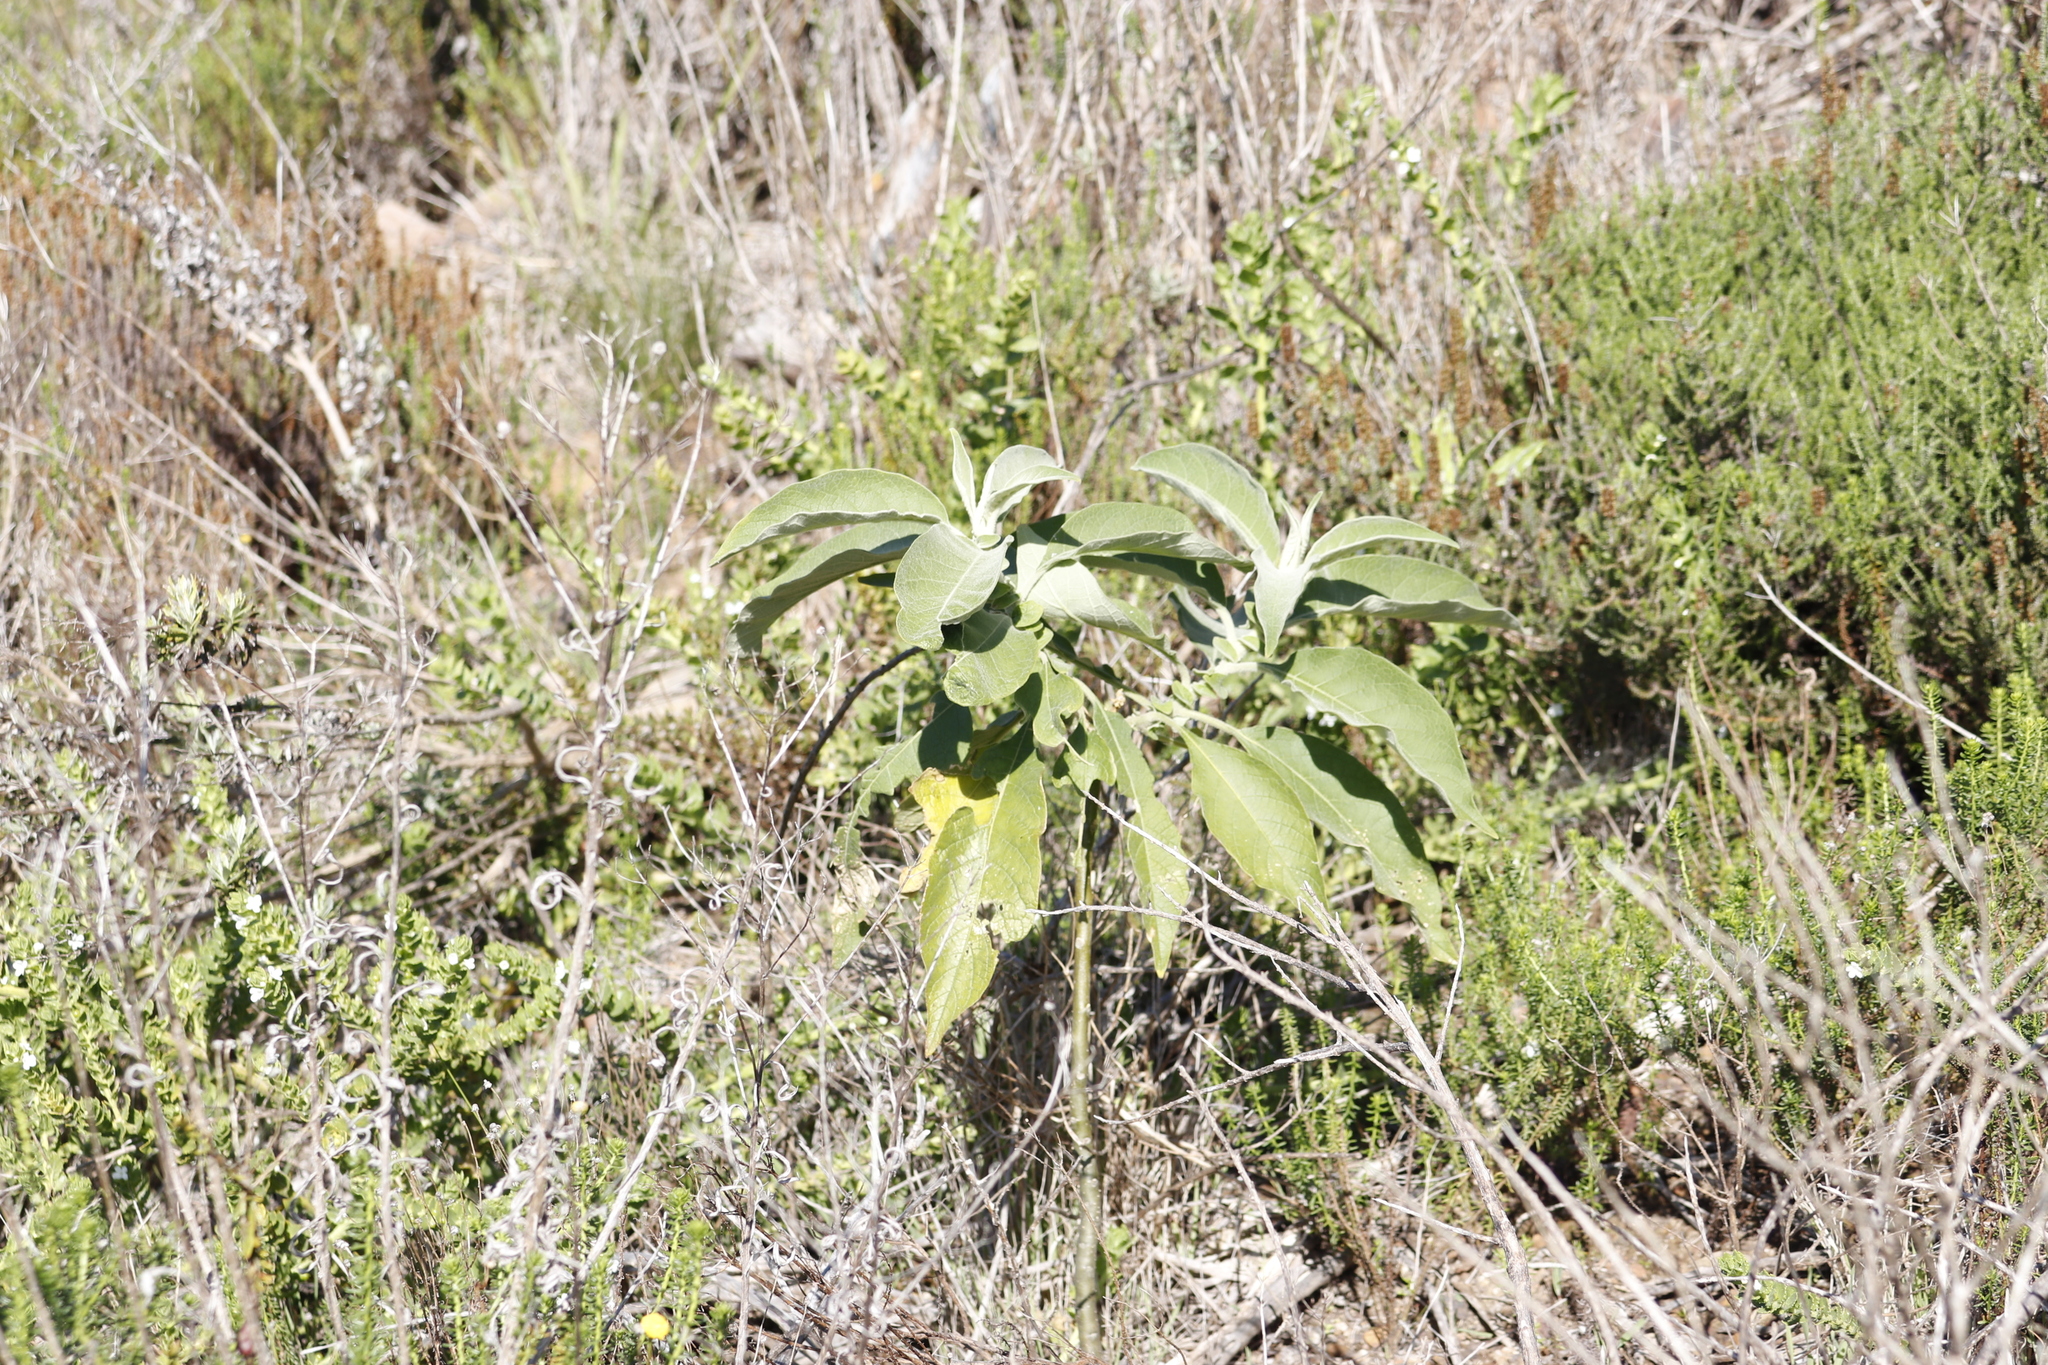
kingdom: Plantae
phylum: Tracheophyta
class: Magnoliopsida
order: Solanales
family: Solanaceae
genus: Solanum
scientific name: Solanum mauritianum
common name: Earleaf nightshade
